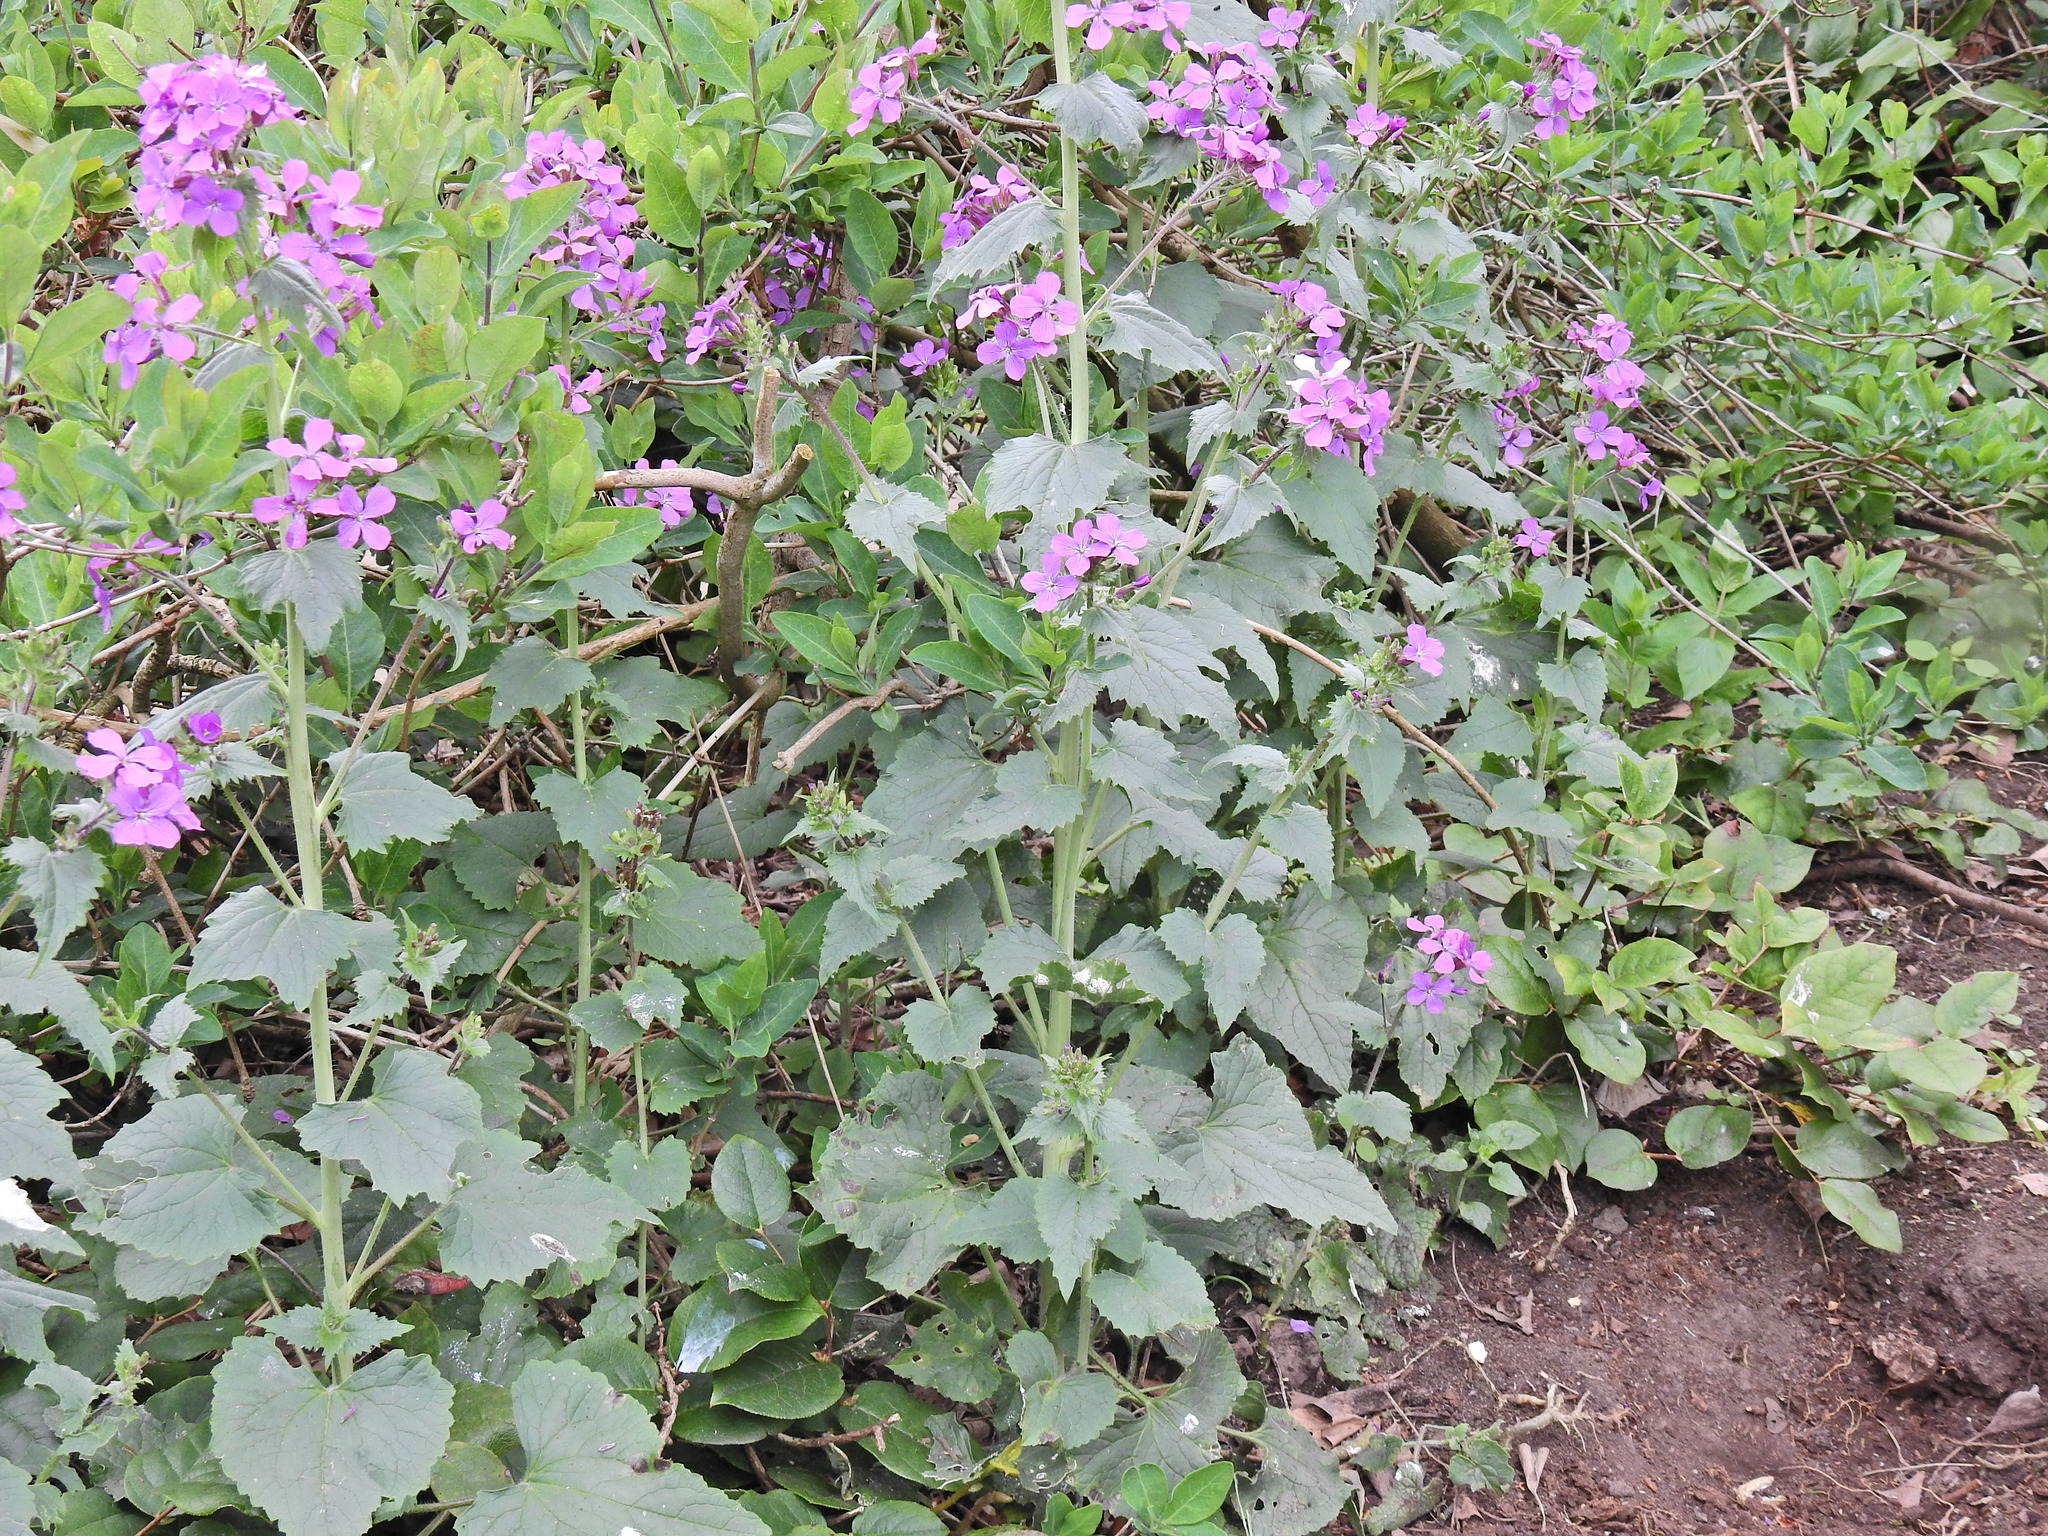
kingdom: Plantae
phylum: Tracheophyta
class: Magnoliopsida
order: Brassicales
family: Brassicaceae
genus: Lunaria
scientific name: Lunaria annua
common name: Honesty
